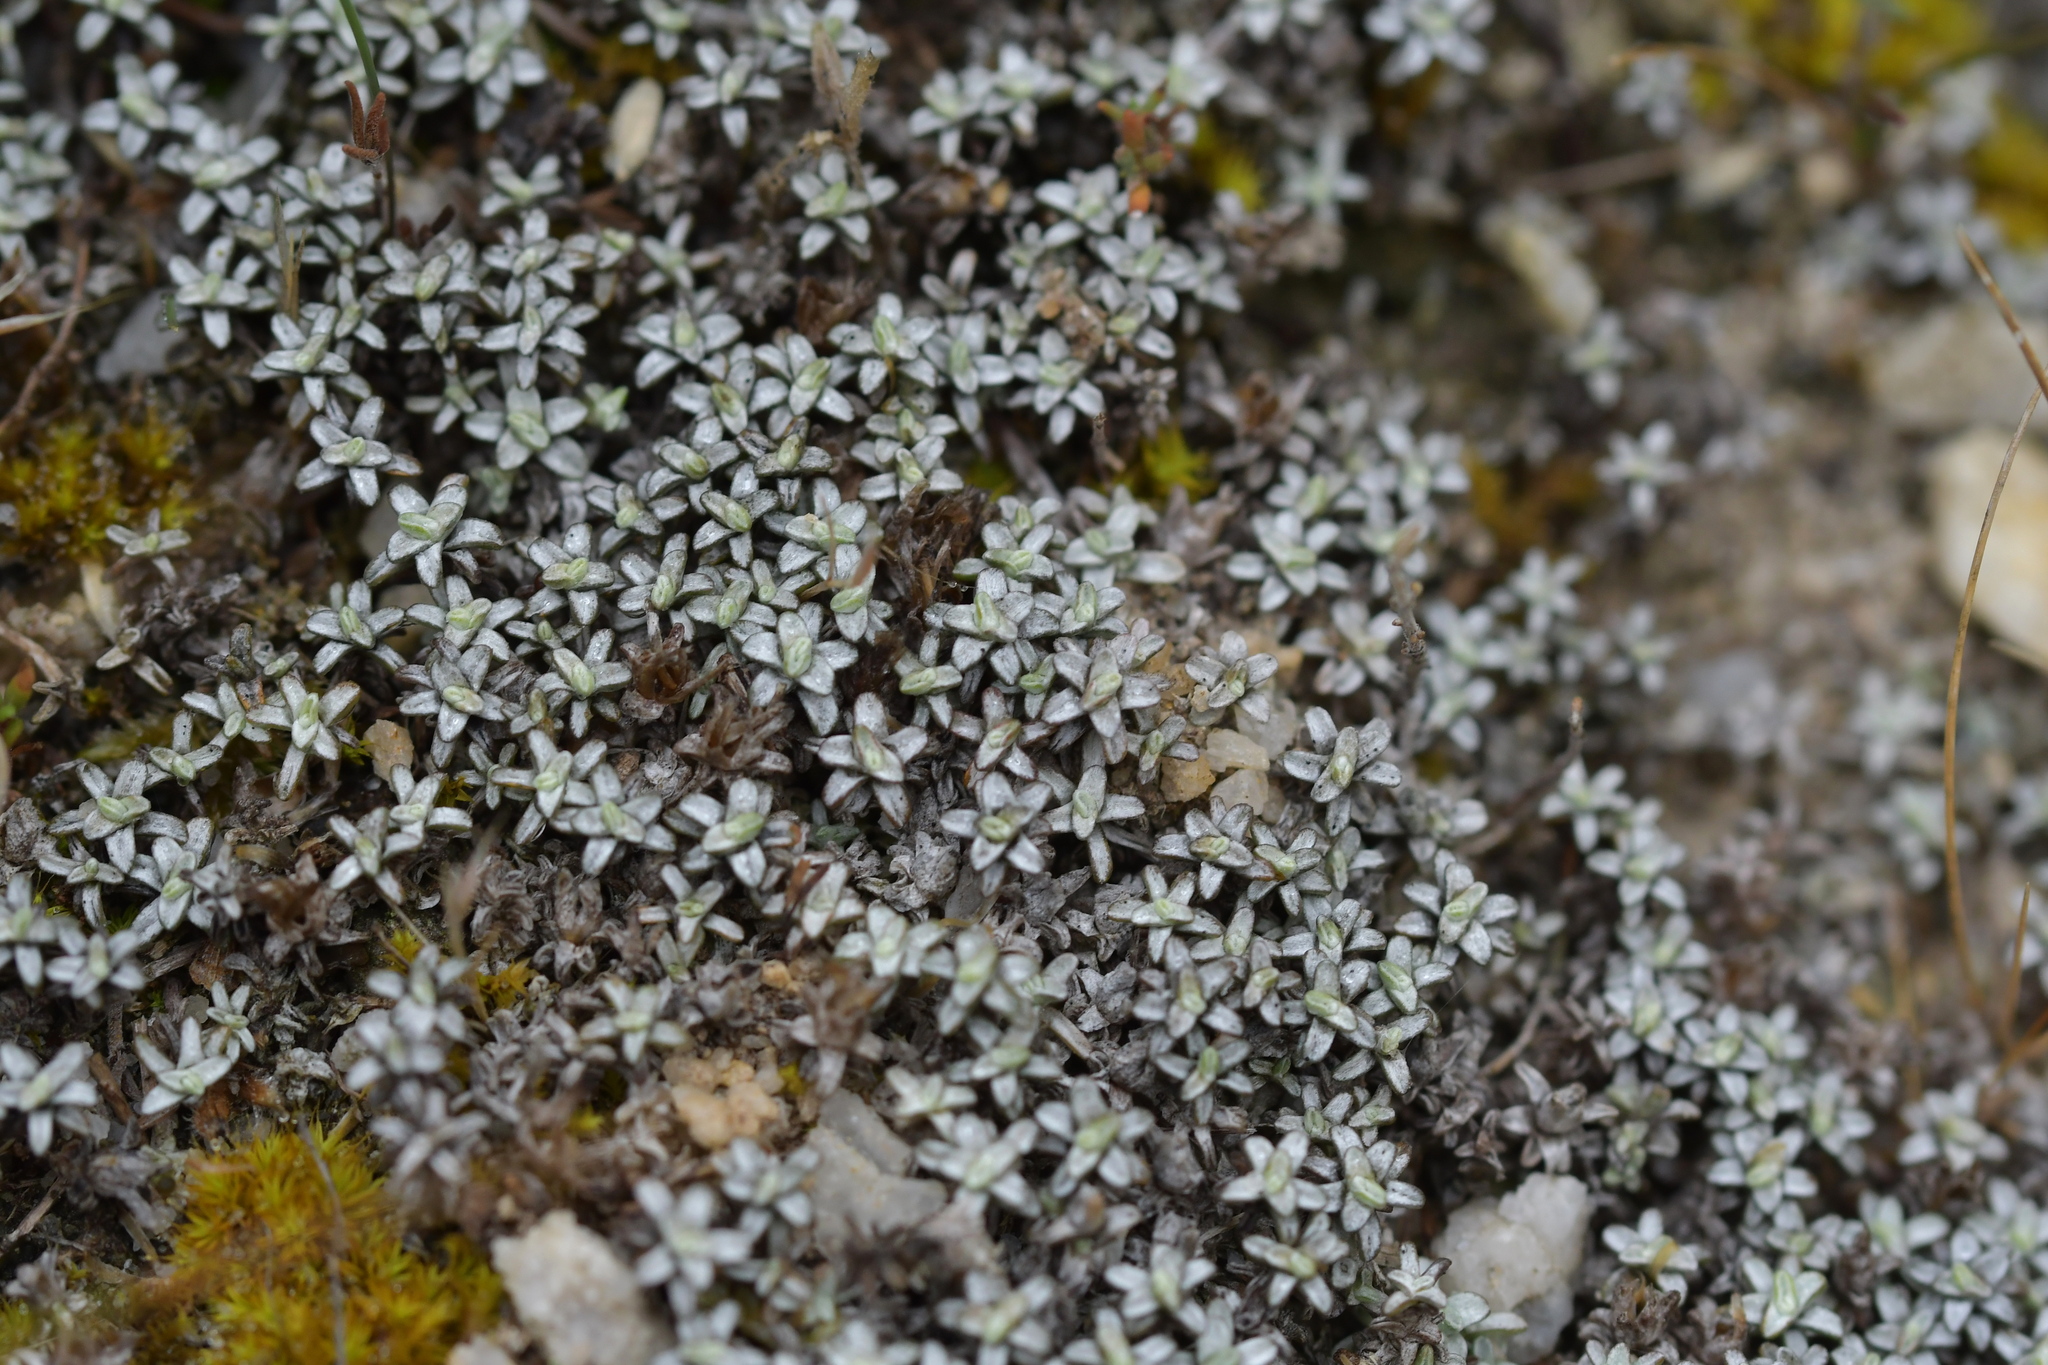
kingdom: Plantae
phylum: Tracheophyta
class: Magnoliopsida
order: Asterales
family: Asteraceae
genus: Raoulia
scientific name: Raoulia beauverdii
